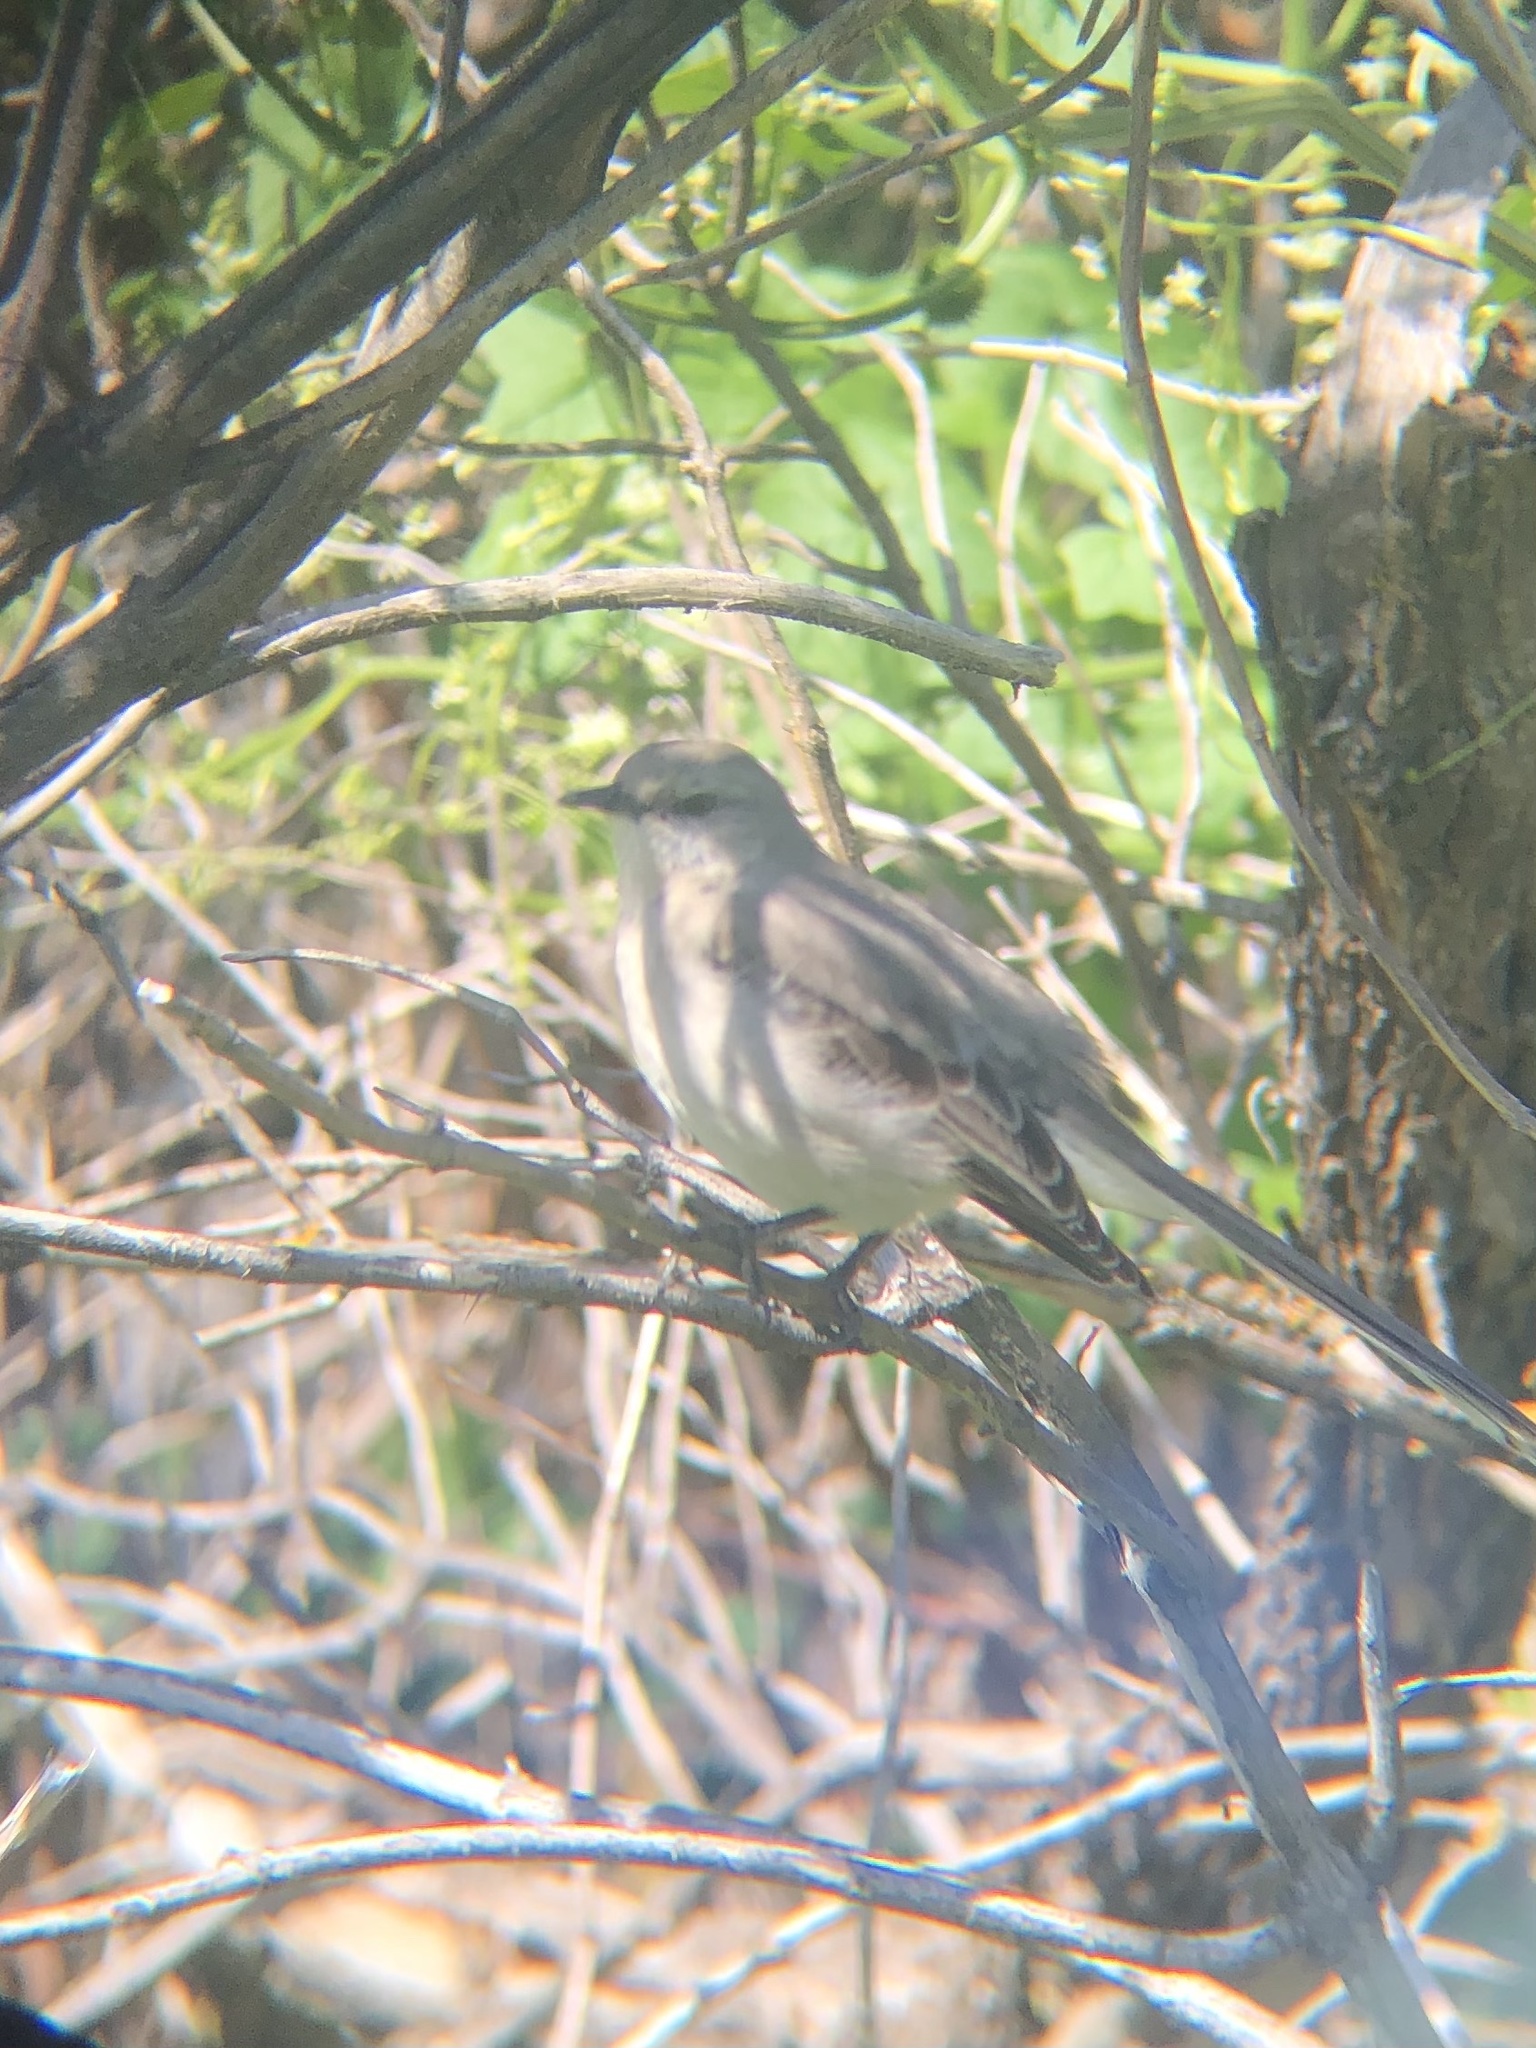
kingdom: Animalia
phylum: Chordata
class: Aves
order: Passeriformes
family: Mimidae
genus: Mimus
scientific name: Mimus polyglottos
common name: Northern mockingbird
